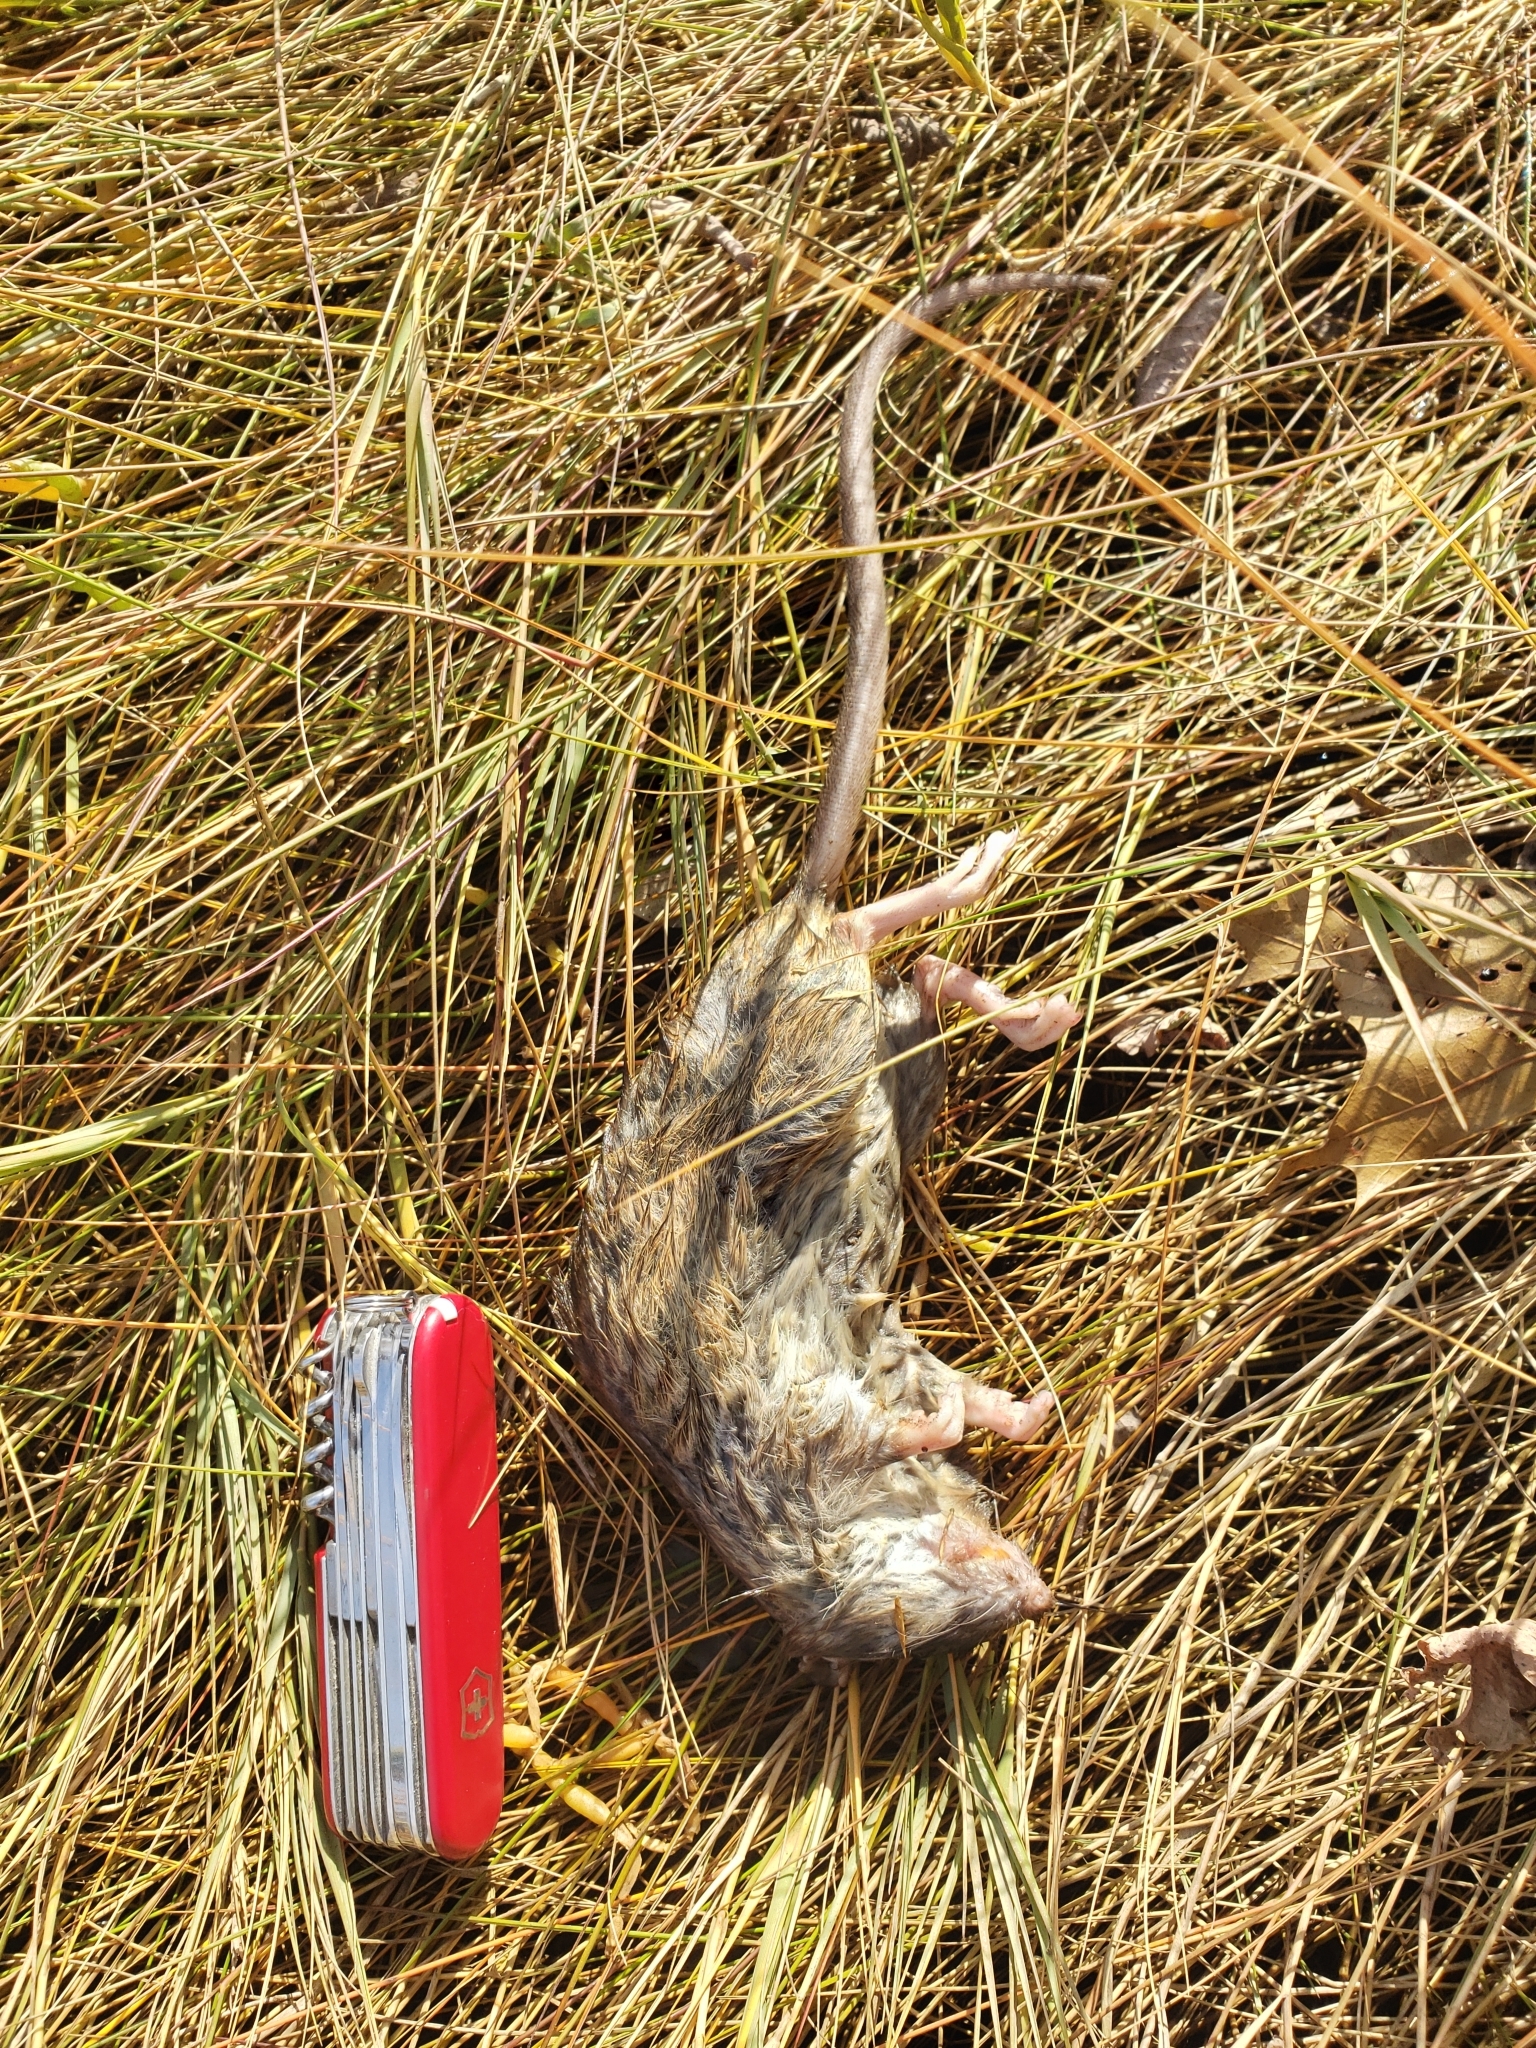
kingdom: Animalia
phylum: Chordata
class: Mammalia
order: Rodentia
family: Muridae
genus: Rattus
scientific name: Rattus norvegicus
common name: Brown rat
